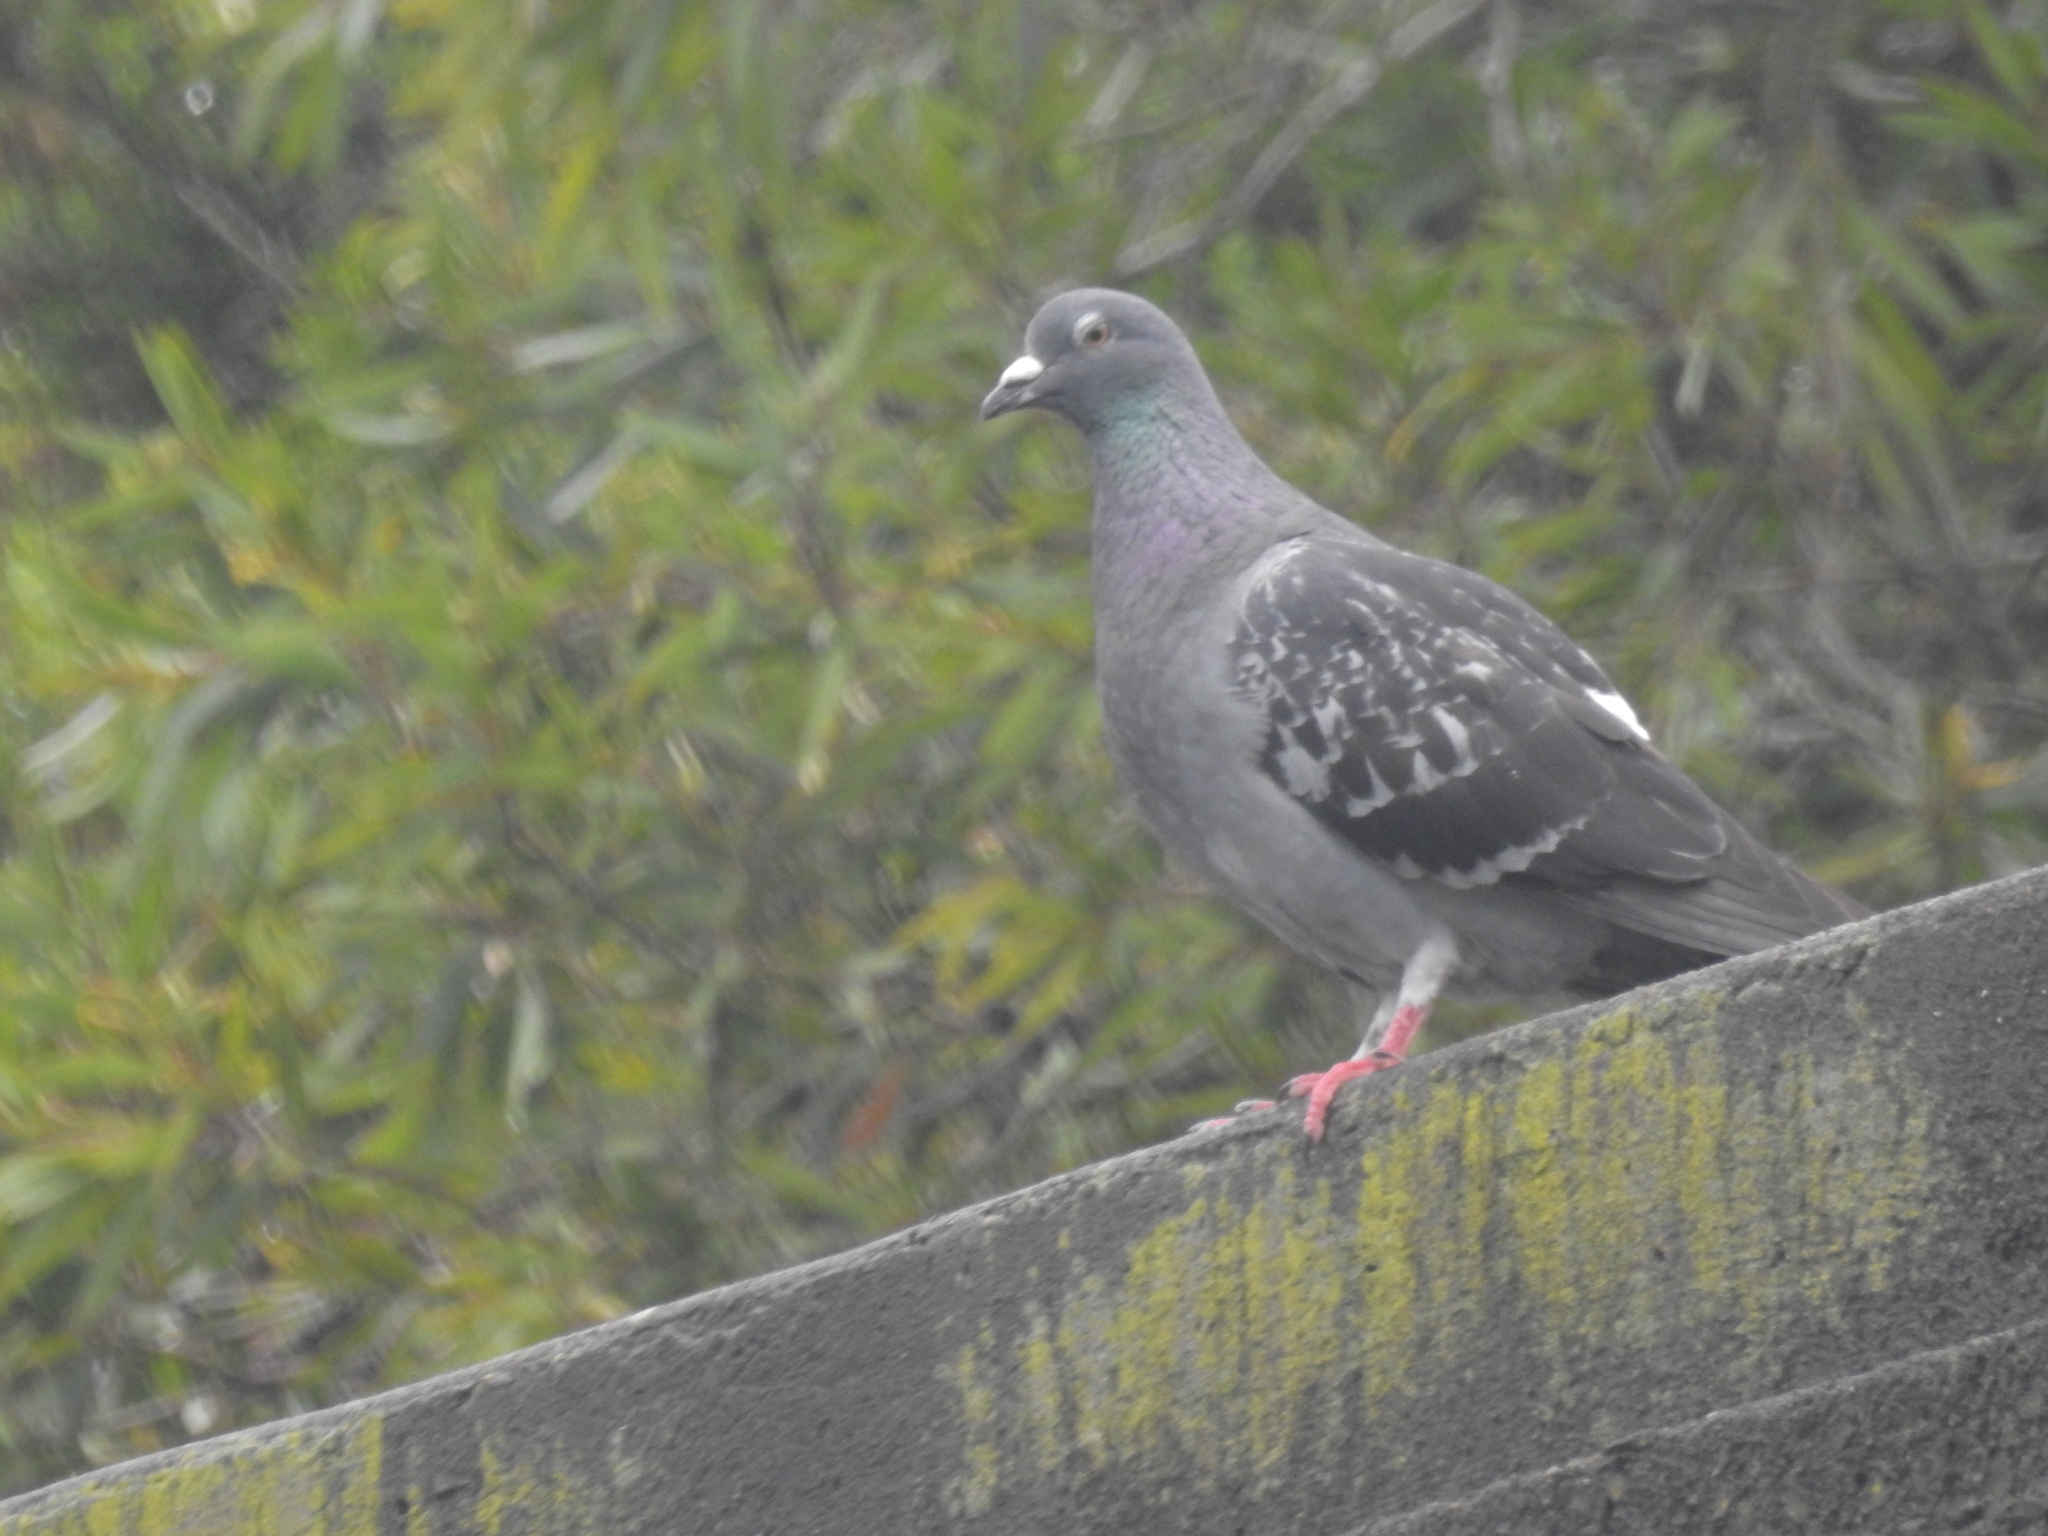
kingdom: Animalia
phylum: Chordata
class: Aves
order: Columbiformes
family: Columbidae
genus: Columba
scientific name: Columba livia
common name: Rock pigeon
